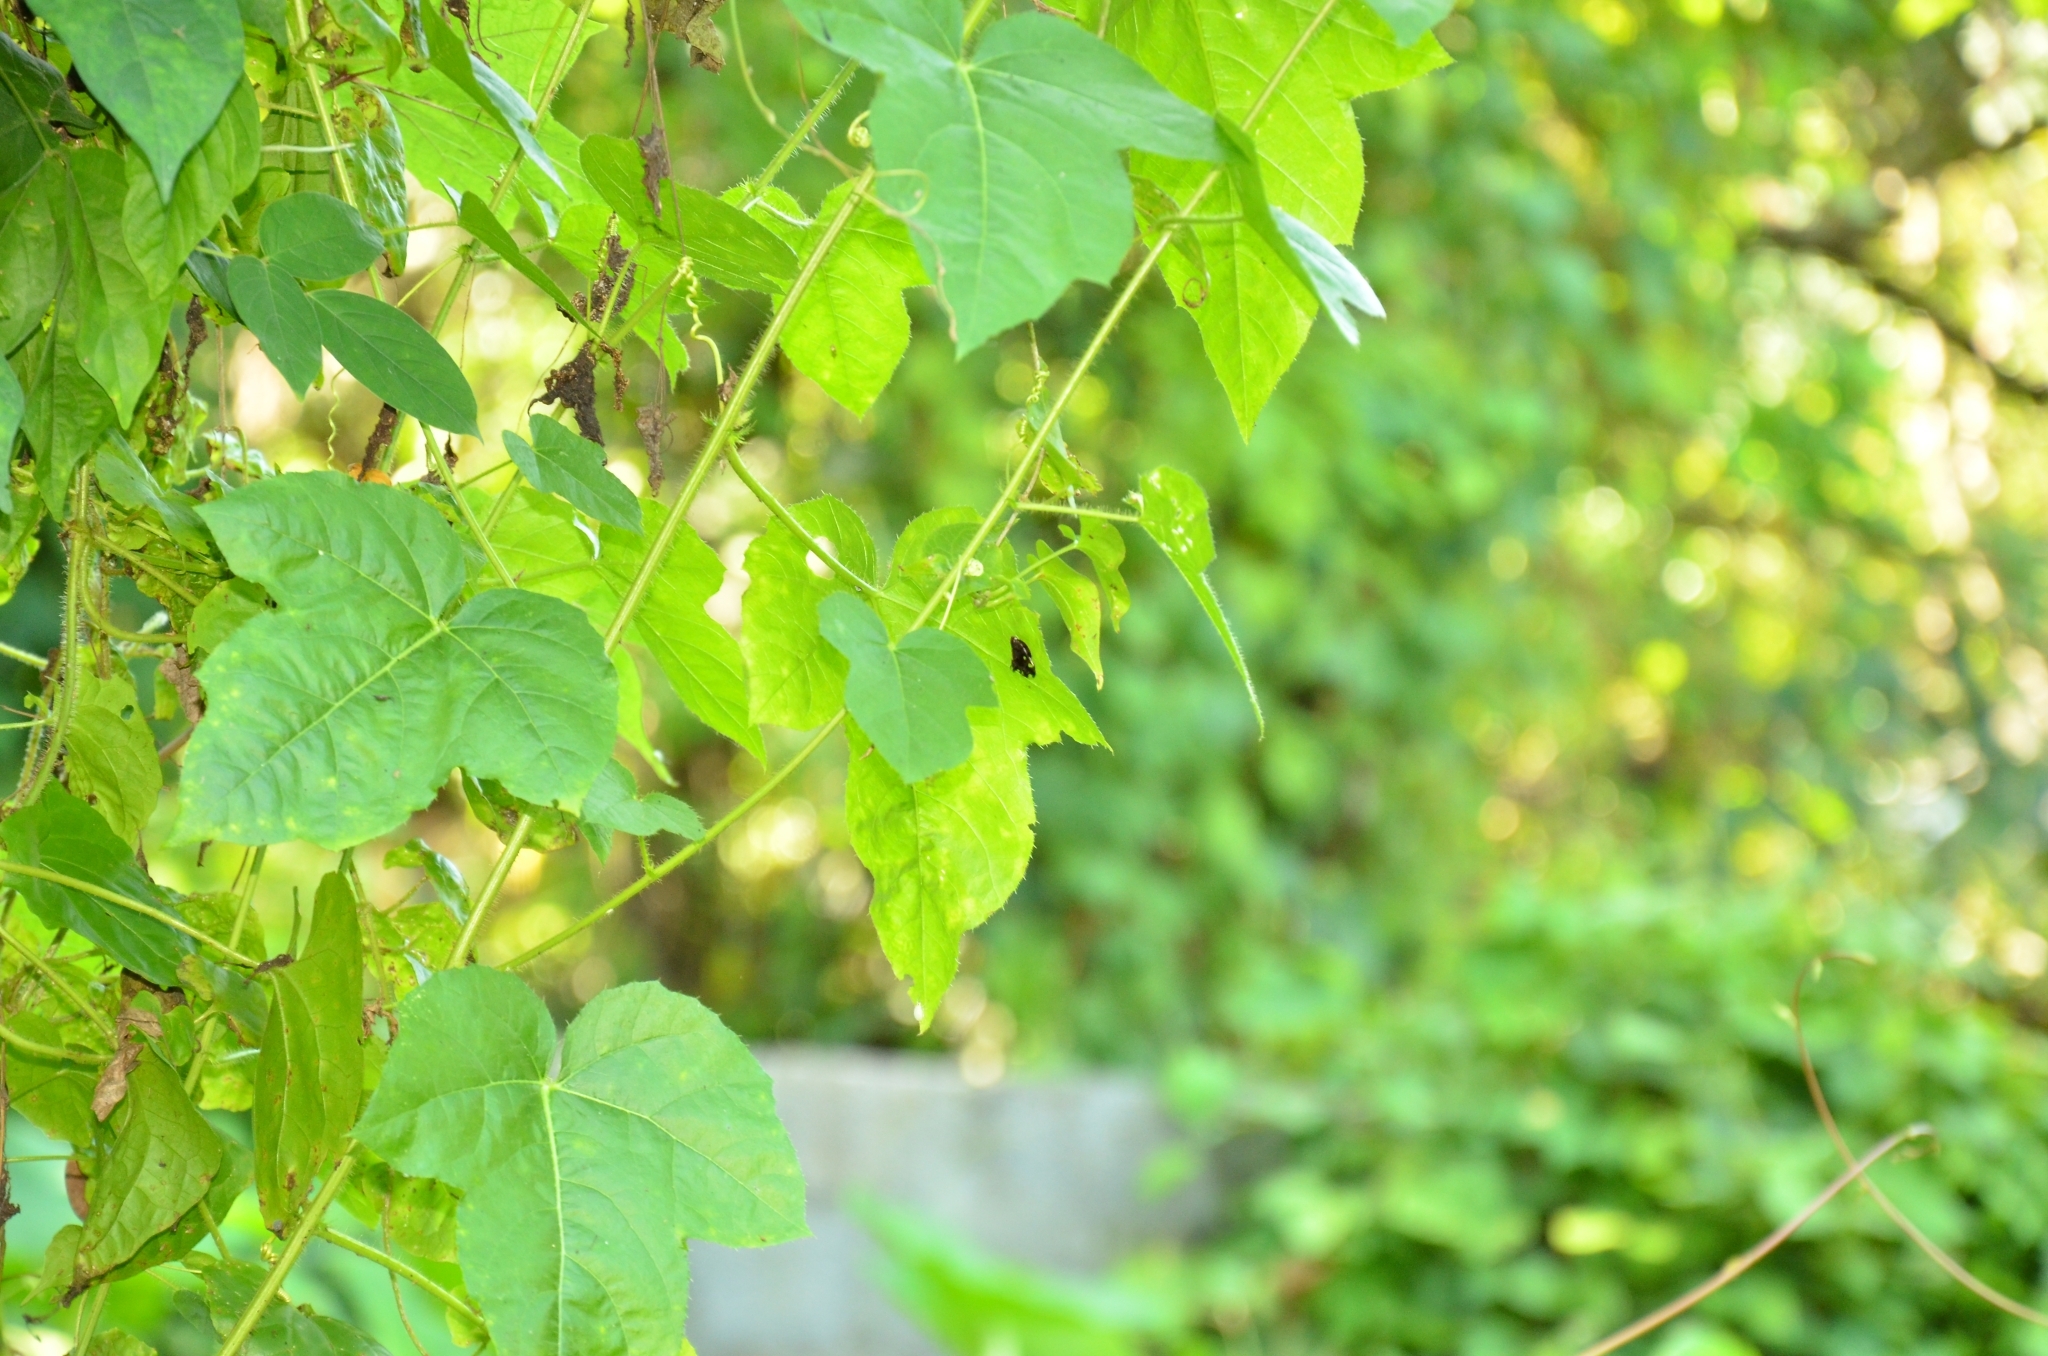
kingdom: Plantae
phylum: Tracheophyta
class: Magnoliopsida
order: Malpighiales
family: Passifloraceae
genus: Passiflora
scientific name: Passiflora vesicaria
